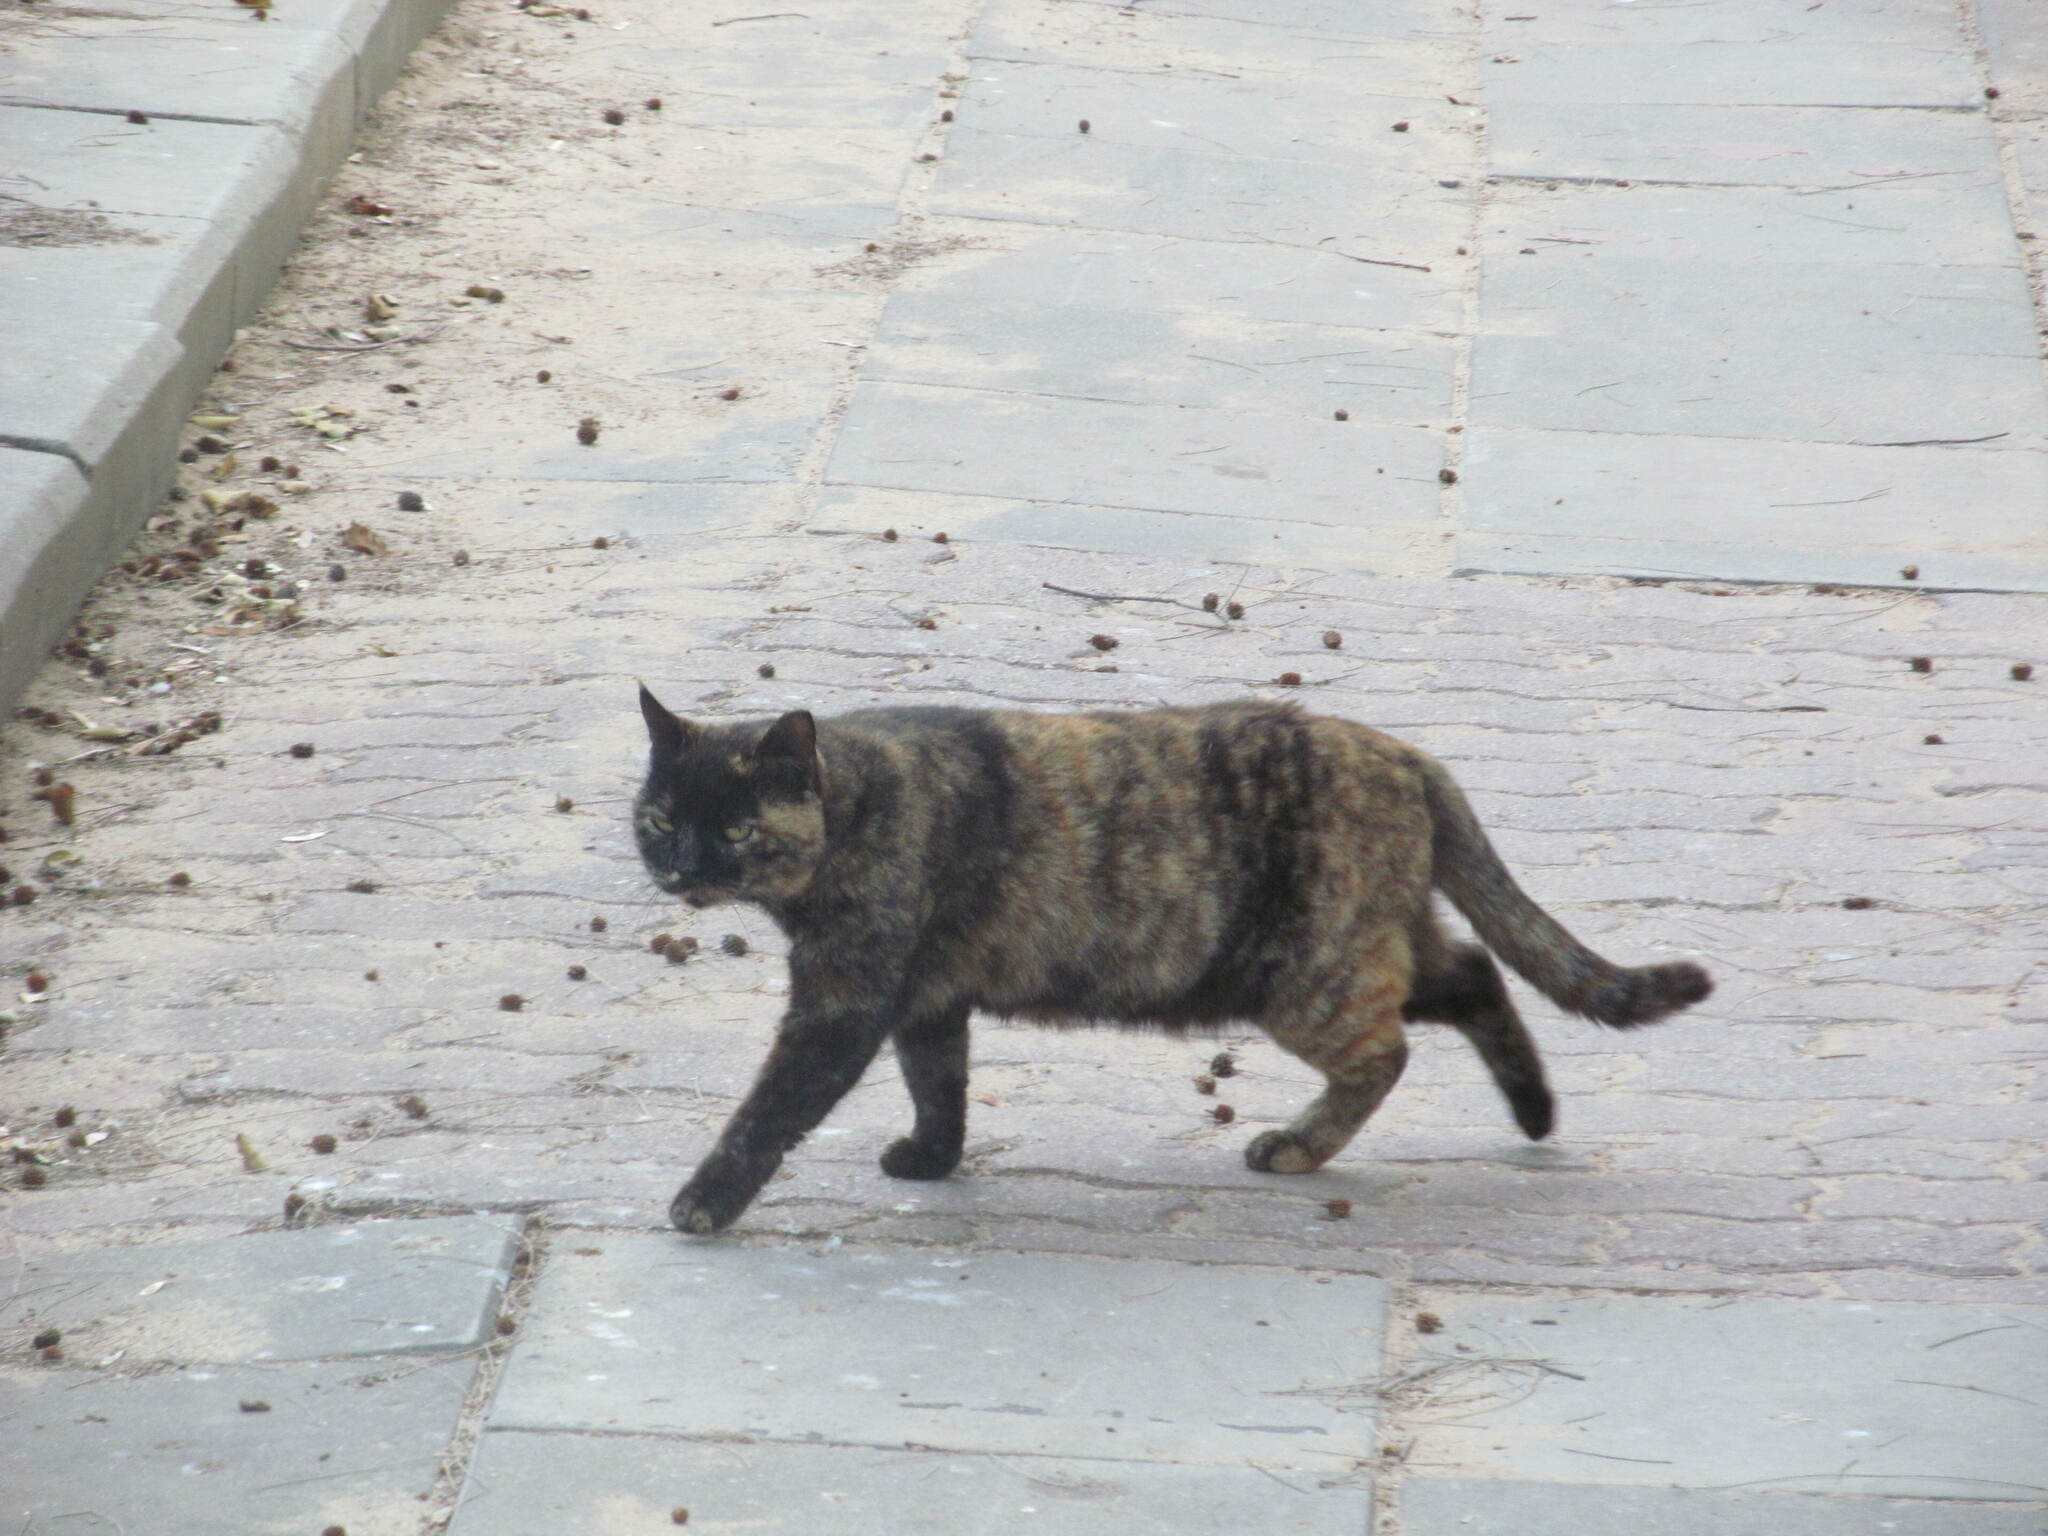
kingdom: Animalia
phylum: Chordata
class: Mammalia
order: Carnivora
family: Felidae
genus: Felis
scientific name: Felis catus
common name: Domestic cat
